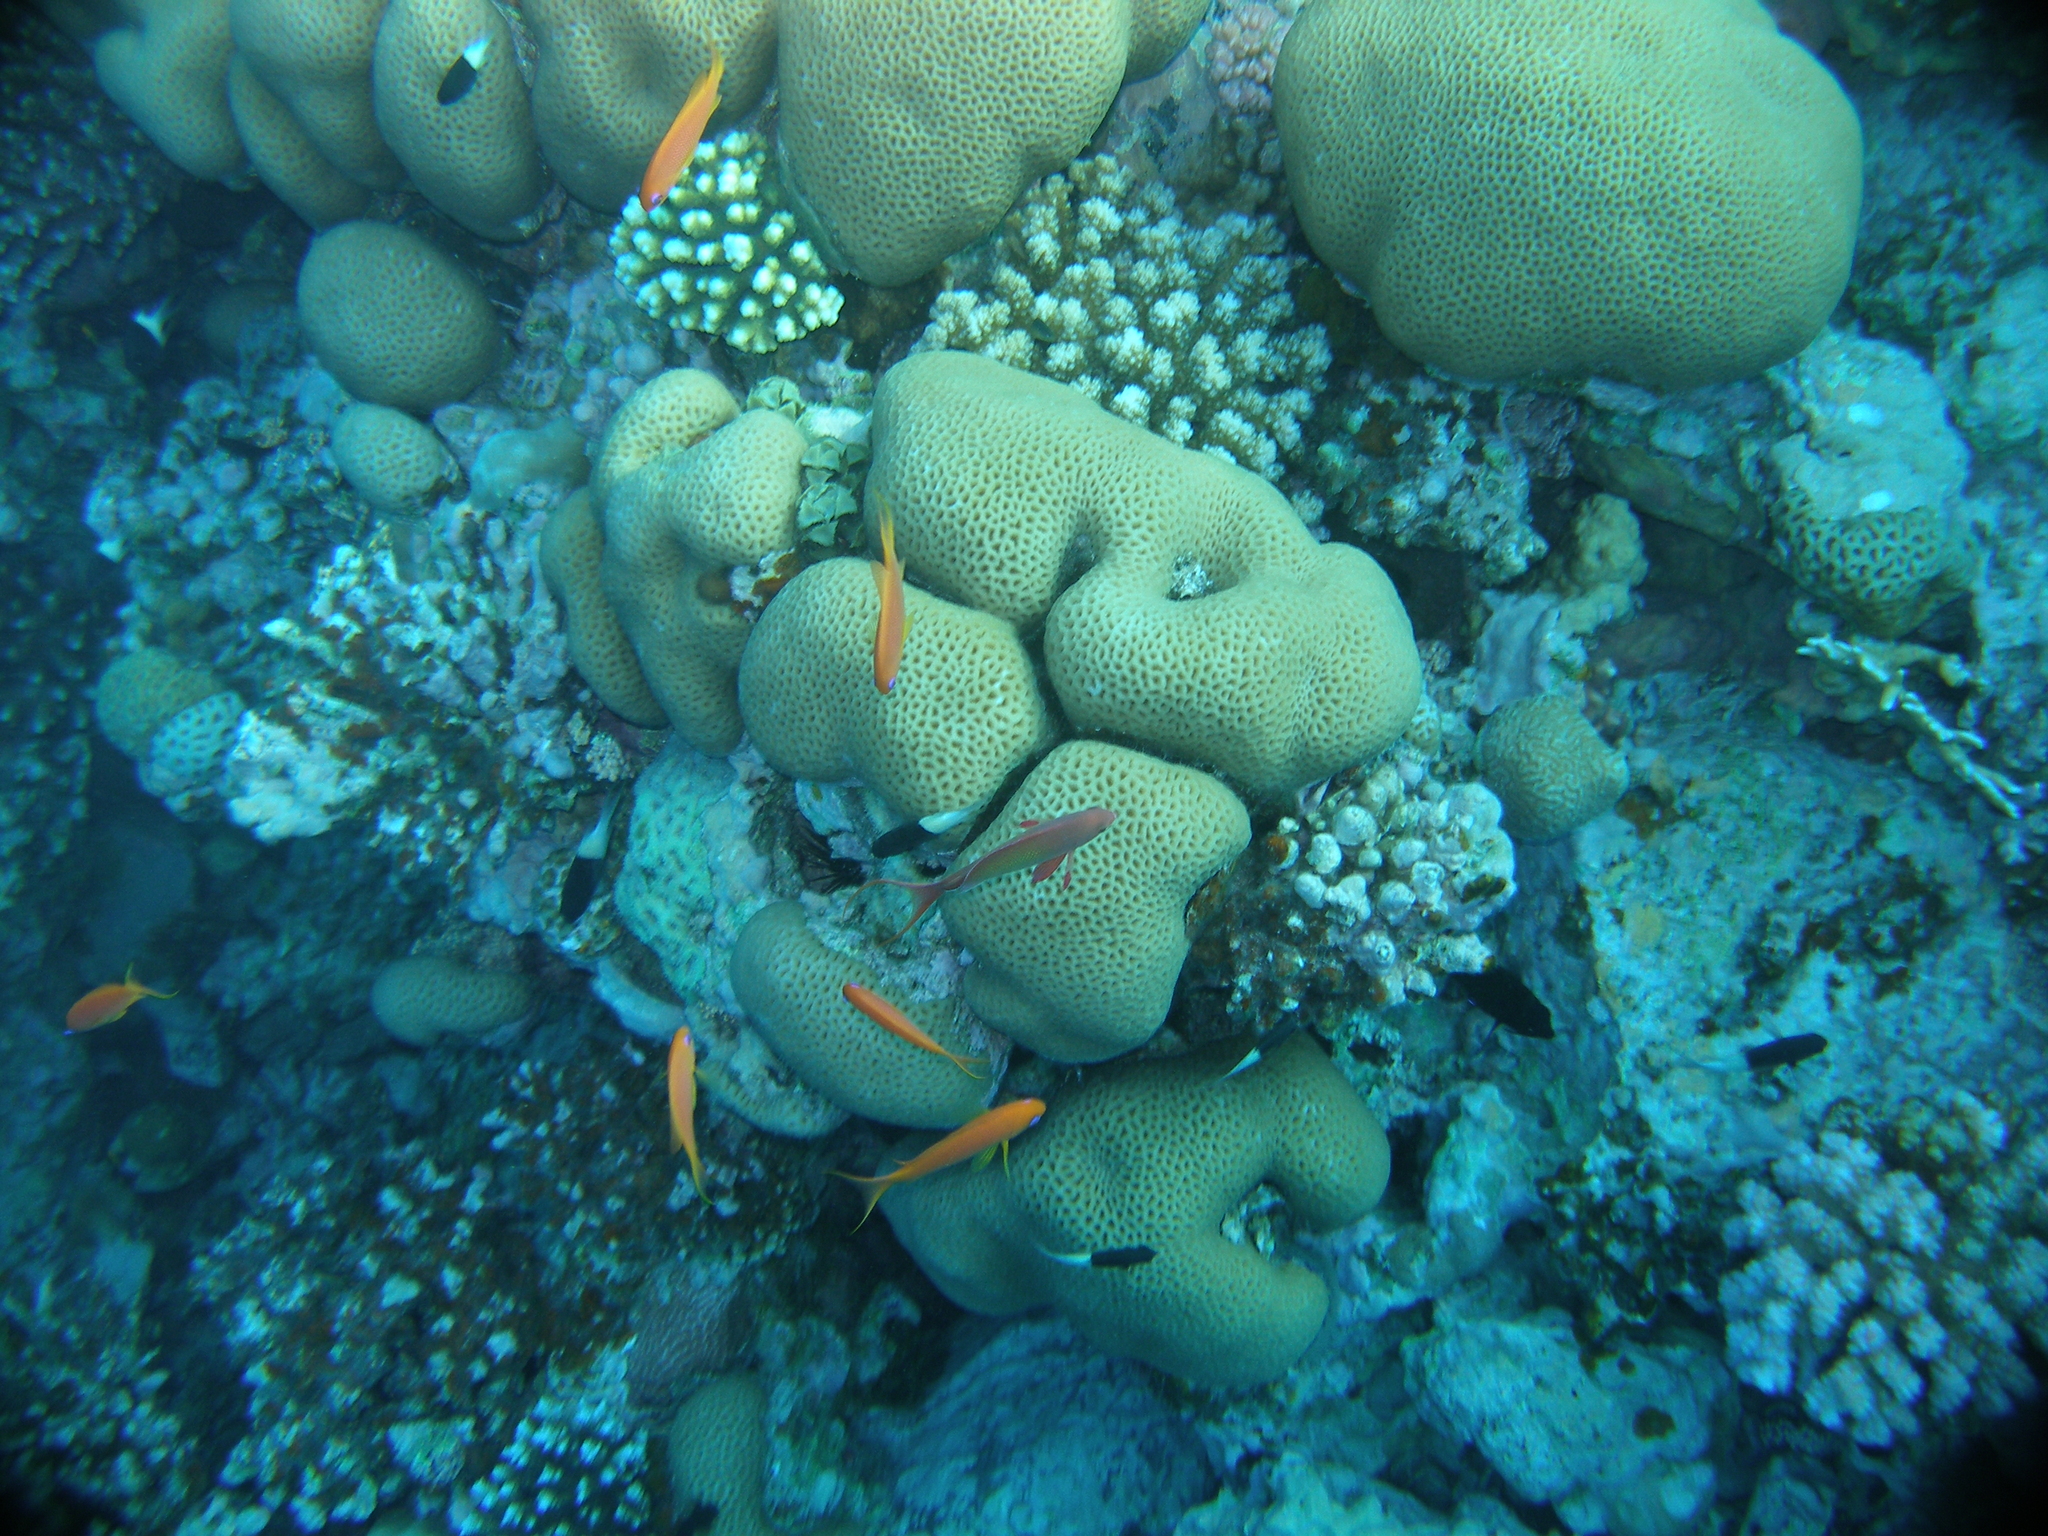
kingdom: Animalia
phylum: Chordata
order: Perciformes
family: Serranidae
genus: Pseudanthias
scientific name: Pseudanthias squamipinnis
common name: Scalefin anthias
